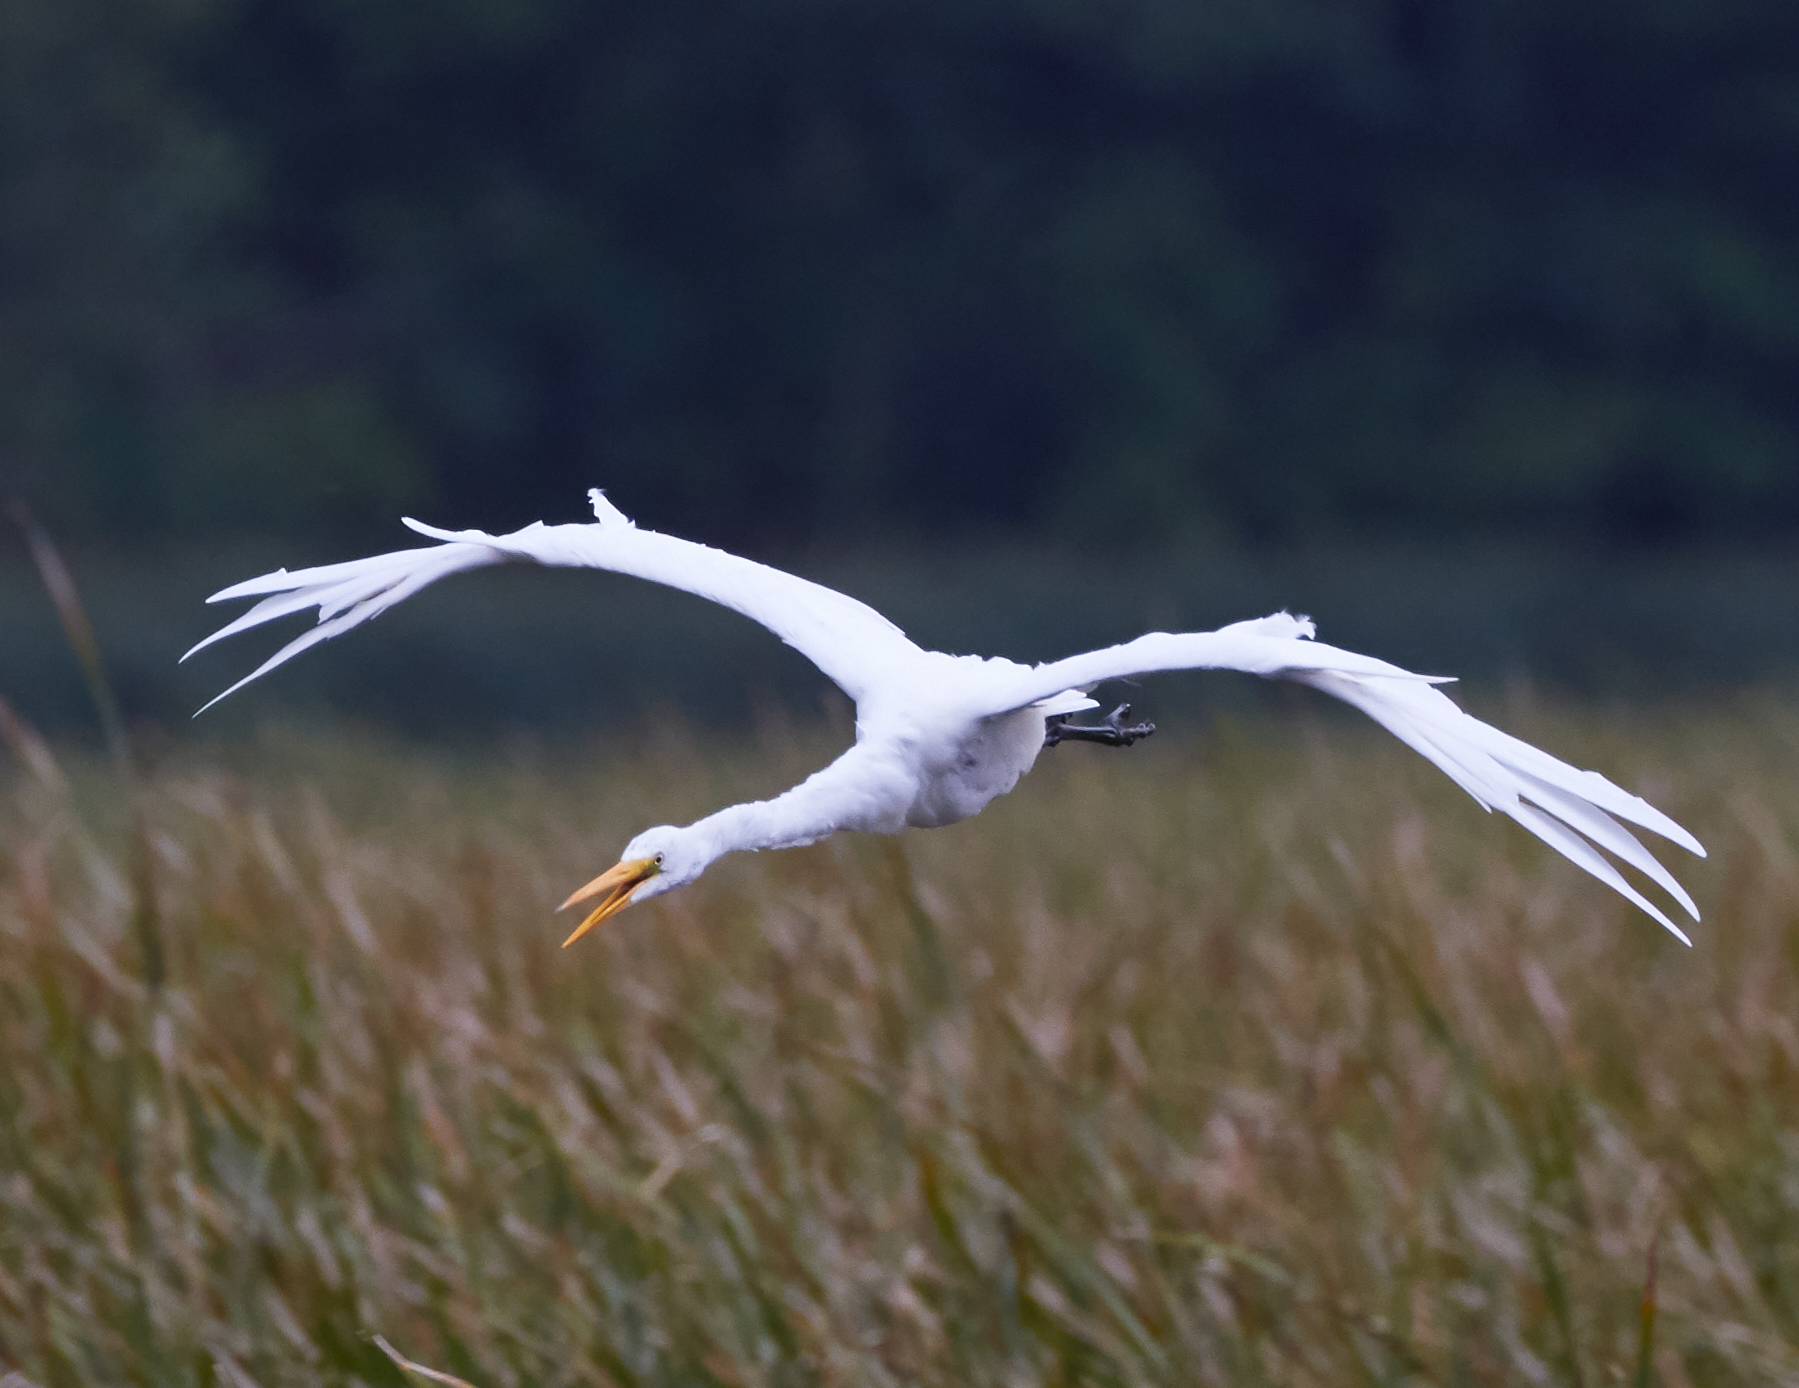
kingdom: Animalia
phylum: Chordata
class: Aves
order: Pelecaniformes
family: Ardeidae
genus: Ardea
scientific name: Ardea alba
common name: Great egret
